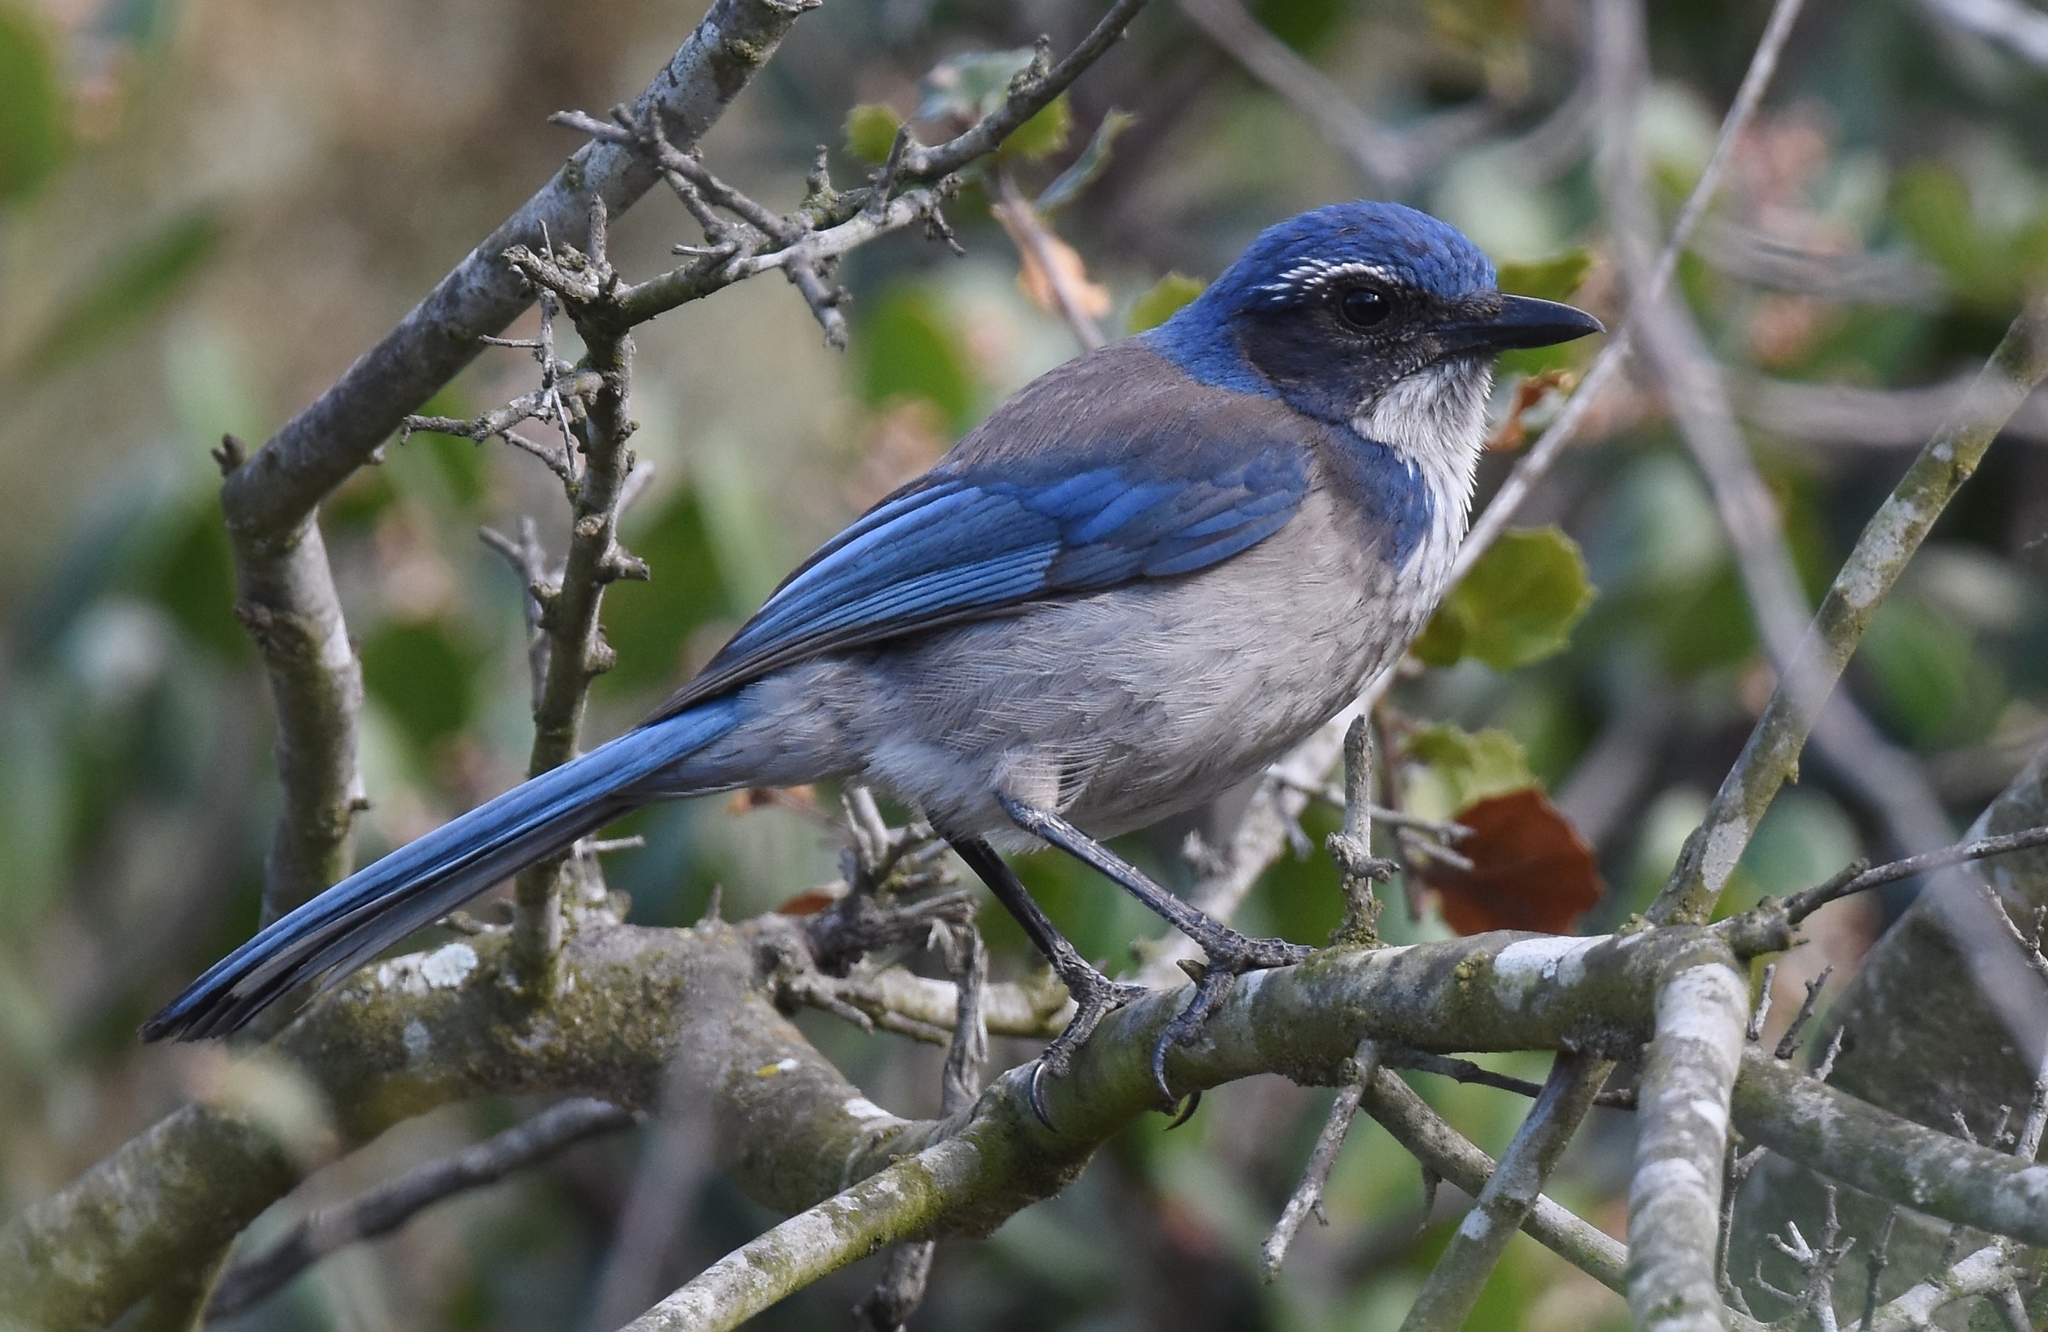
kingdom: Animalia
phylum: Chordata
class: Aves
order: Passeriformes
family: Corvidae
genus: Aphelocoma
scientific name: Aphelocoma californica
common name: California scrub-jay
